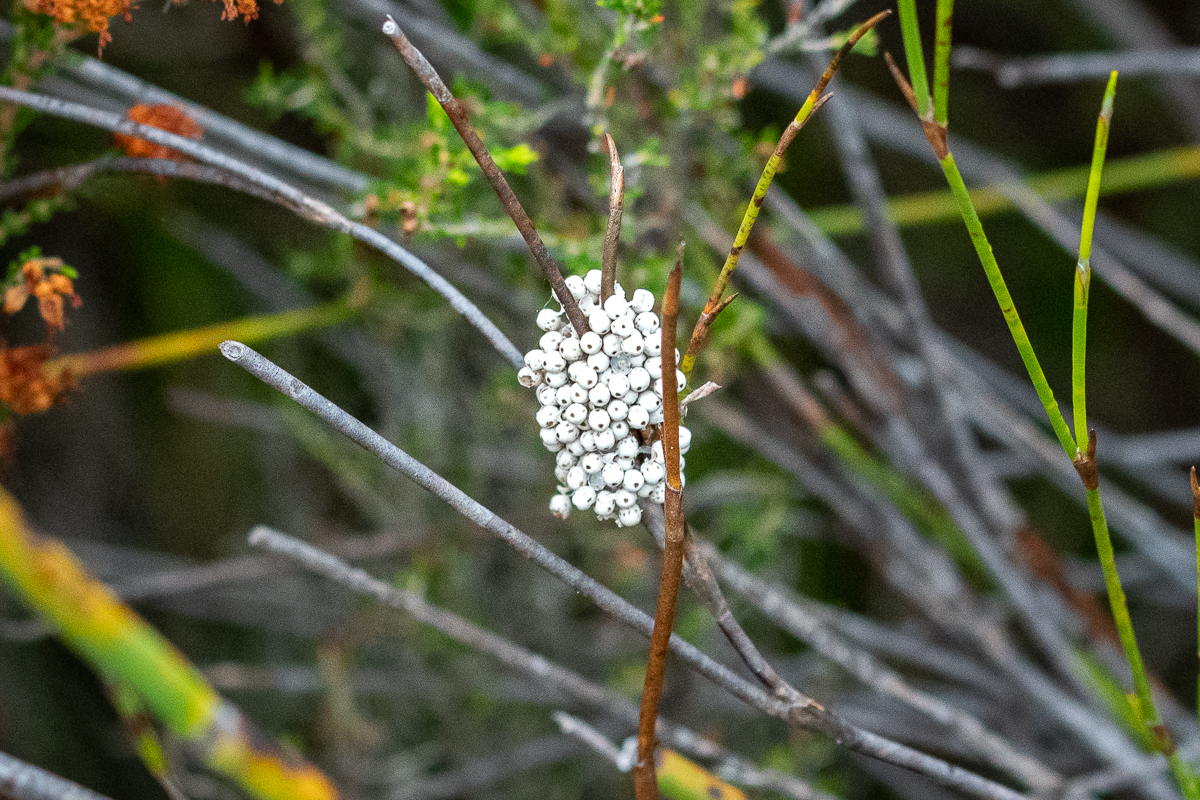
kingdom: Animalia
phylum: Arthropoda
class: Insecta
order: Lepidoptera
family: Lasiocampidae
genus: Eutricha
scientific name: Eutricha capensis
